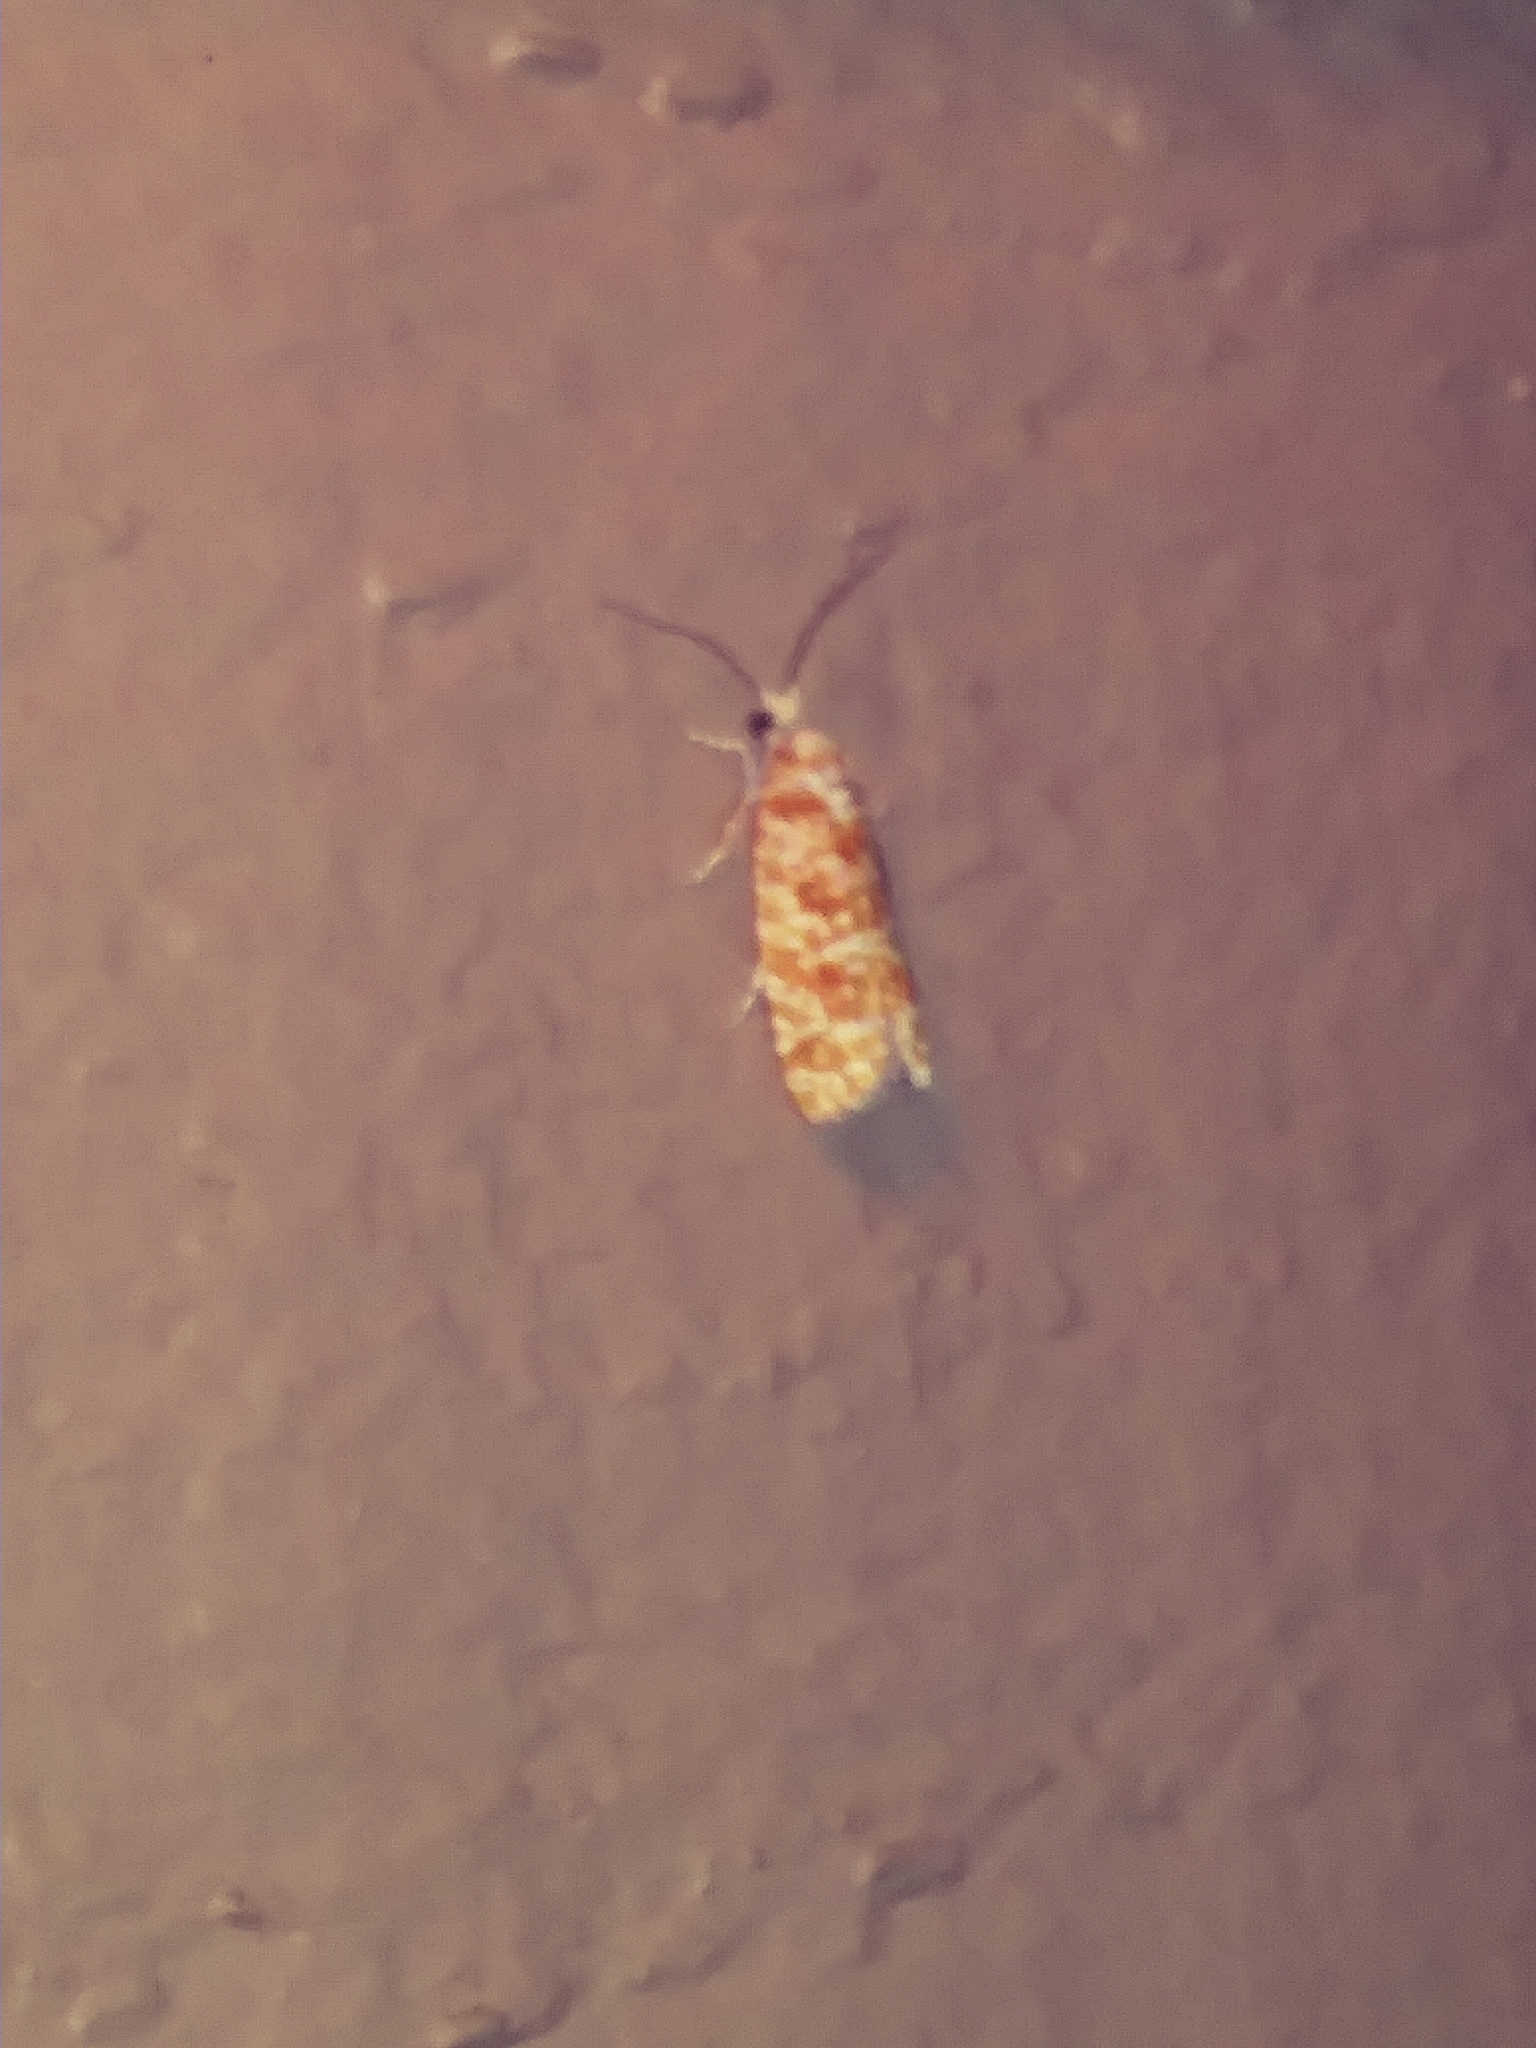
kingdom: Animalia
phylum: Arthropoda
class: Insecta
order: Lepidoptera
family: Tortricidae
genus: Retinia
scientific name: Retinia virginiana
